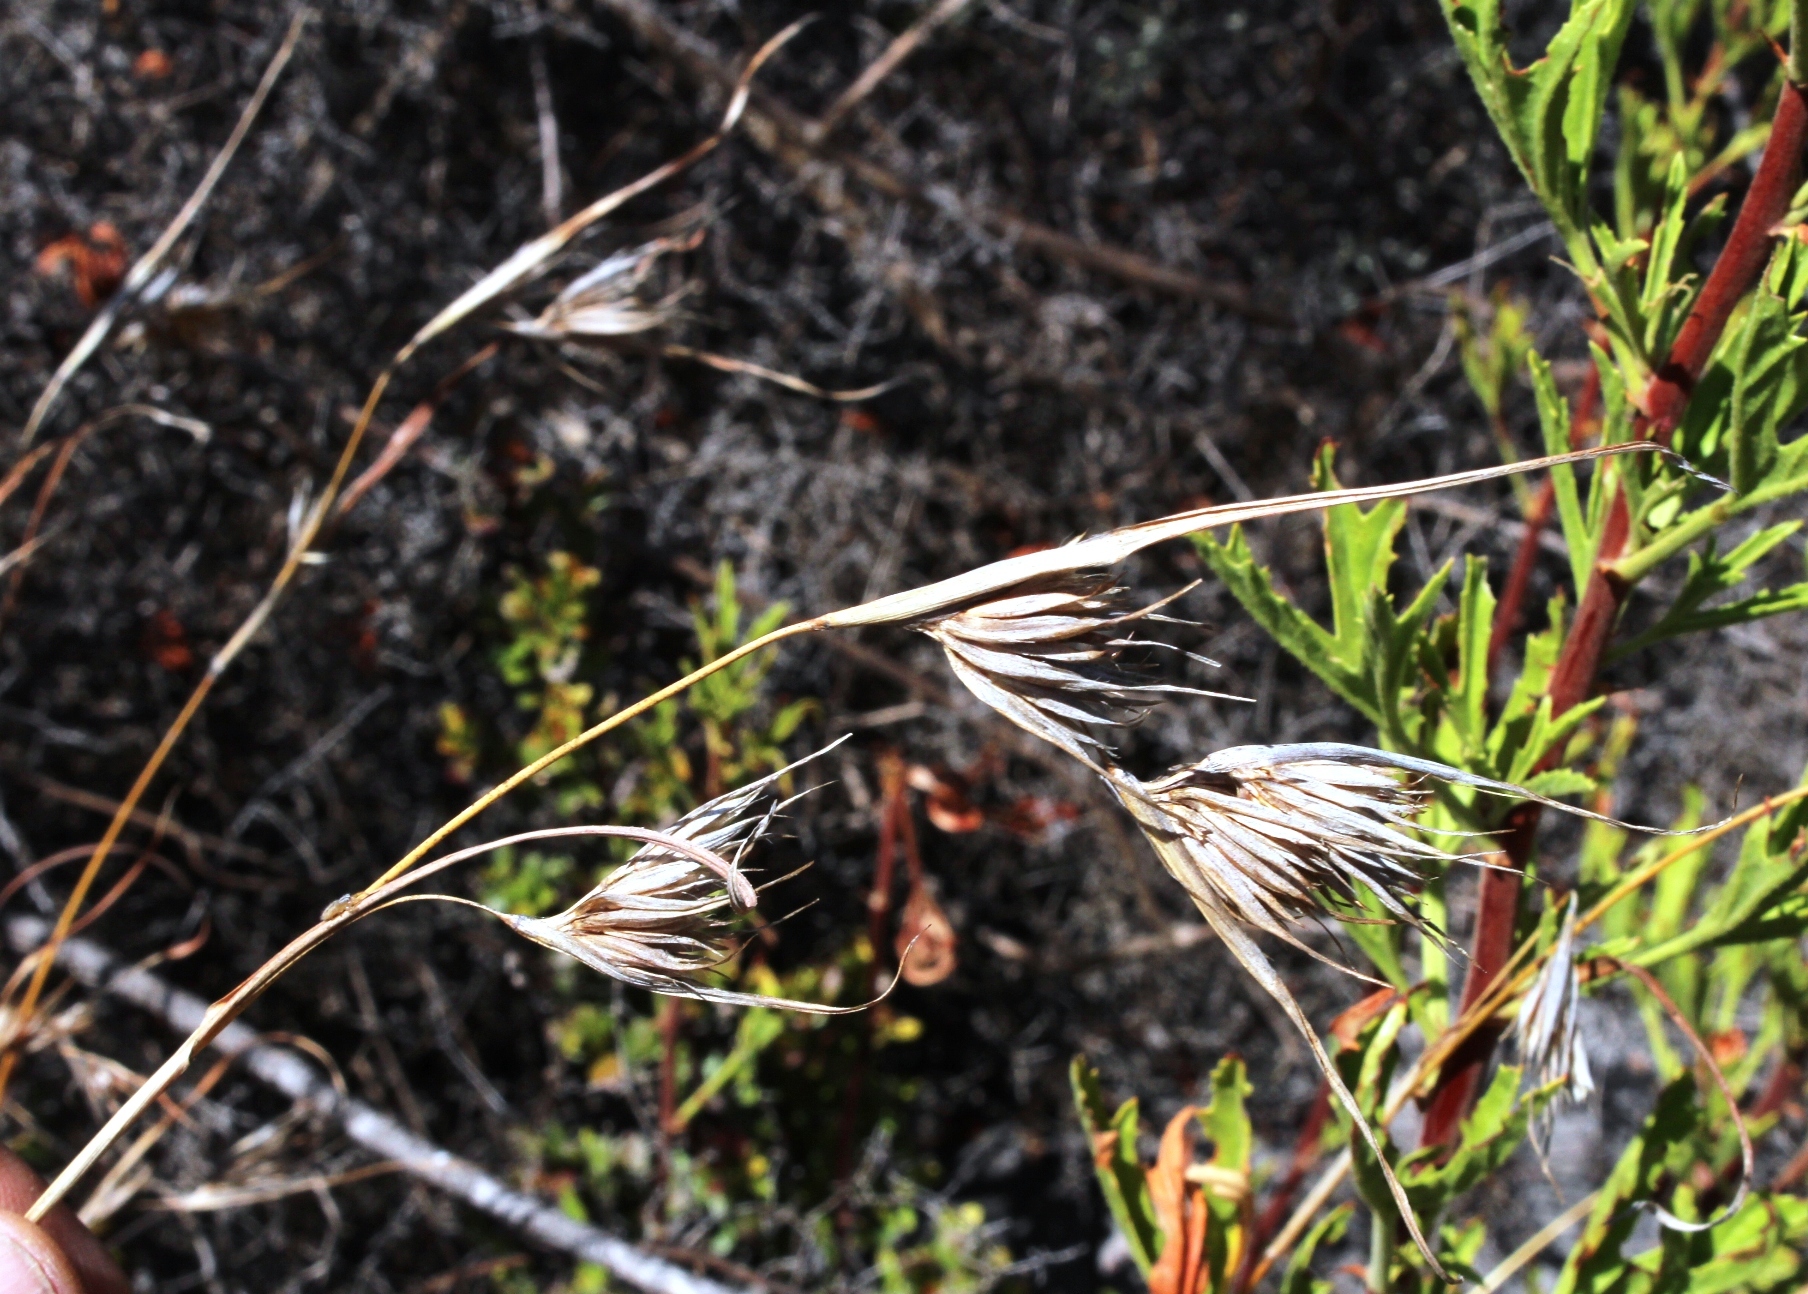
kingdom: Plantae
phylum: Tracheophyta
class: Liliopsida
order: Poales
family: Poaceae
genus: Themeda
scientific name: Themeda triandra
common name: Kangaroo grass
